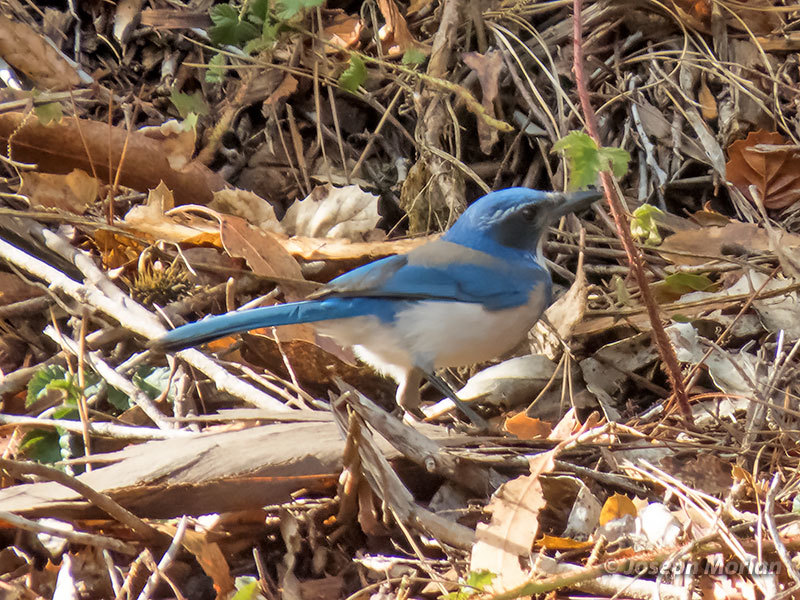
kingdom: Animalia
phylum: Chordata
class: Aves
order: Passeriformes
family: Corvidae
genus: Aphelocoma
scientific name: Aphelocoma californica
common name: California scrub-jay
